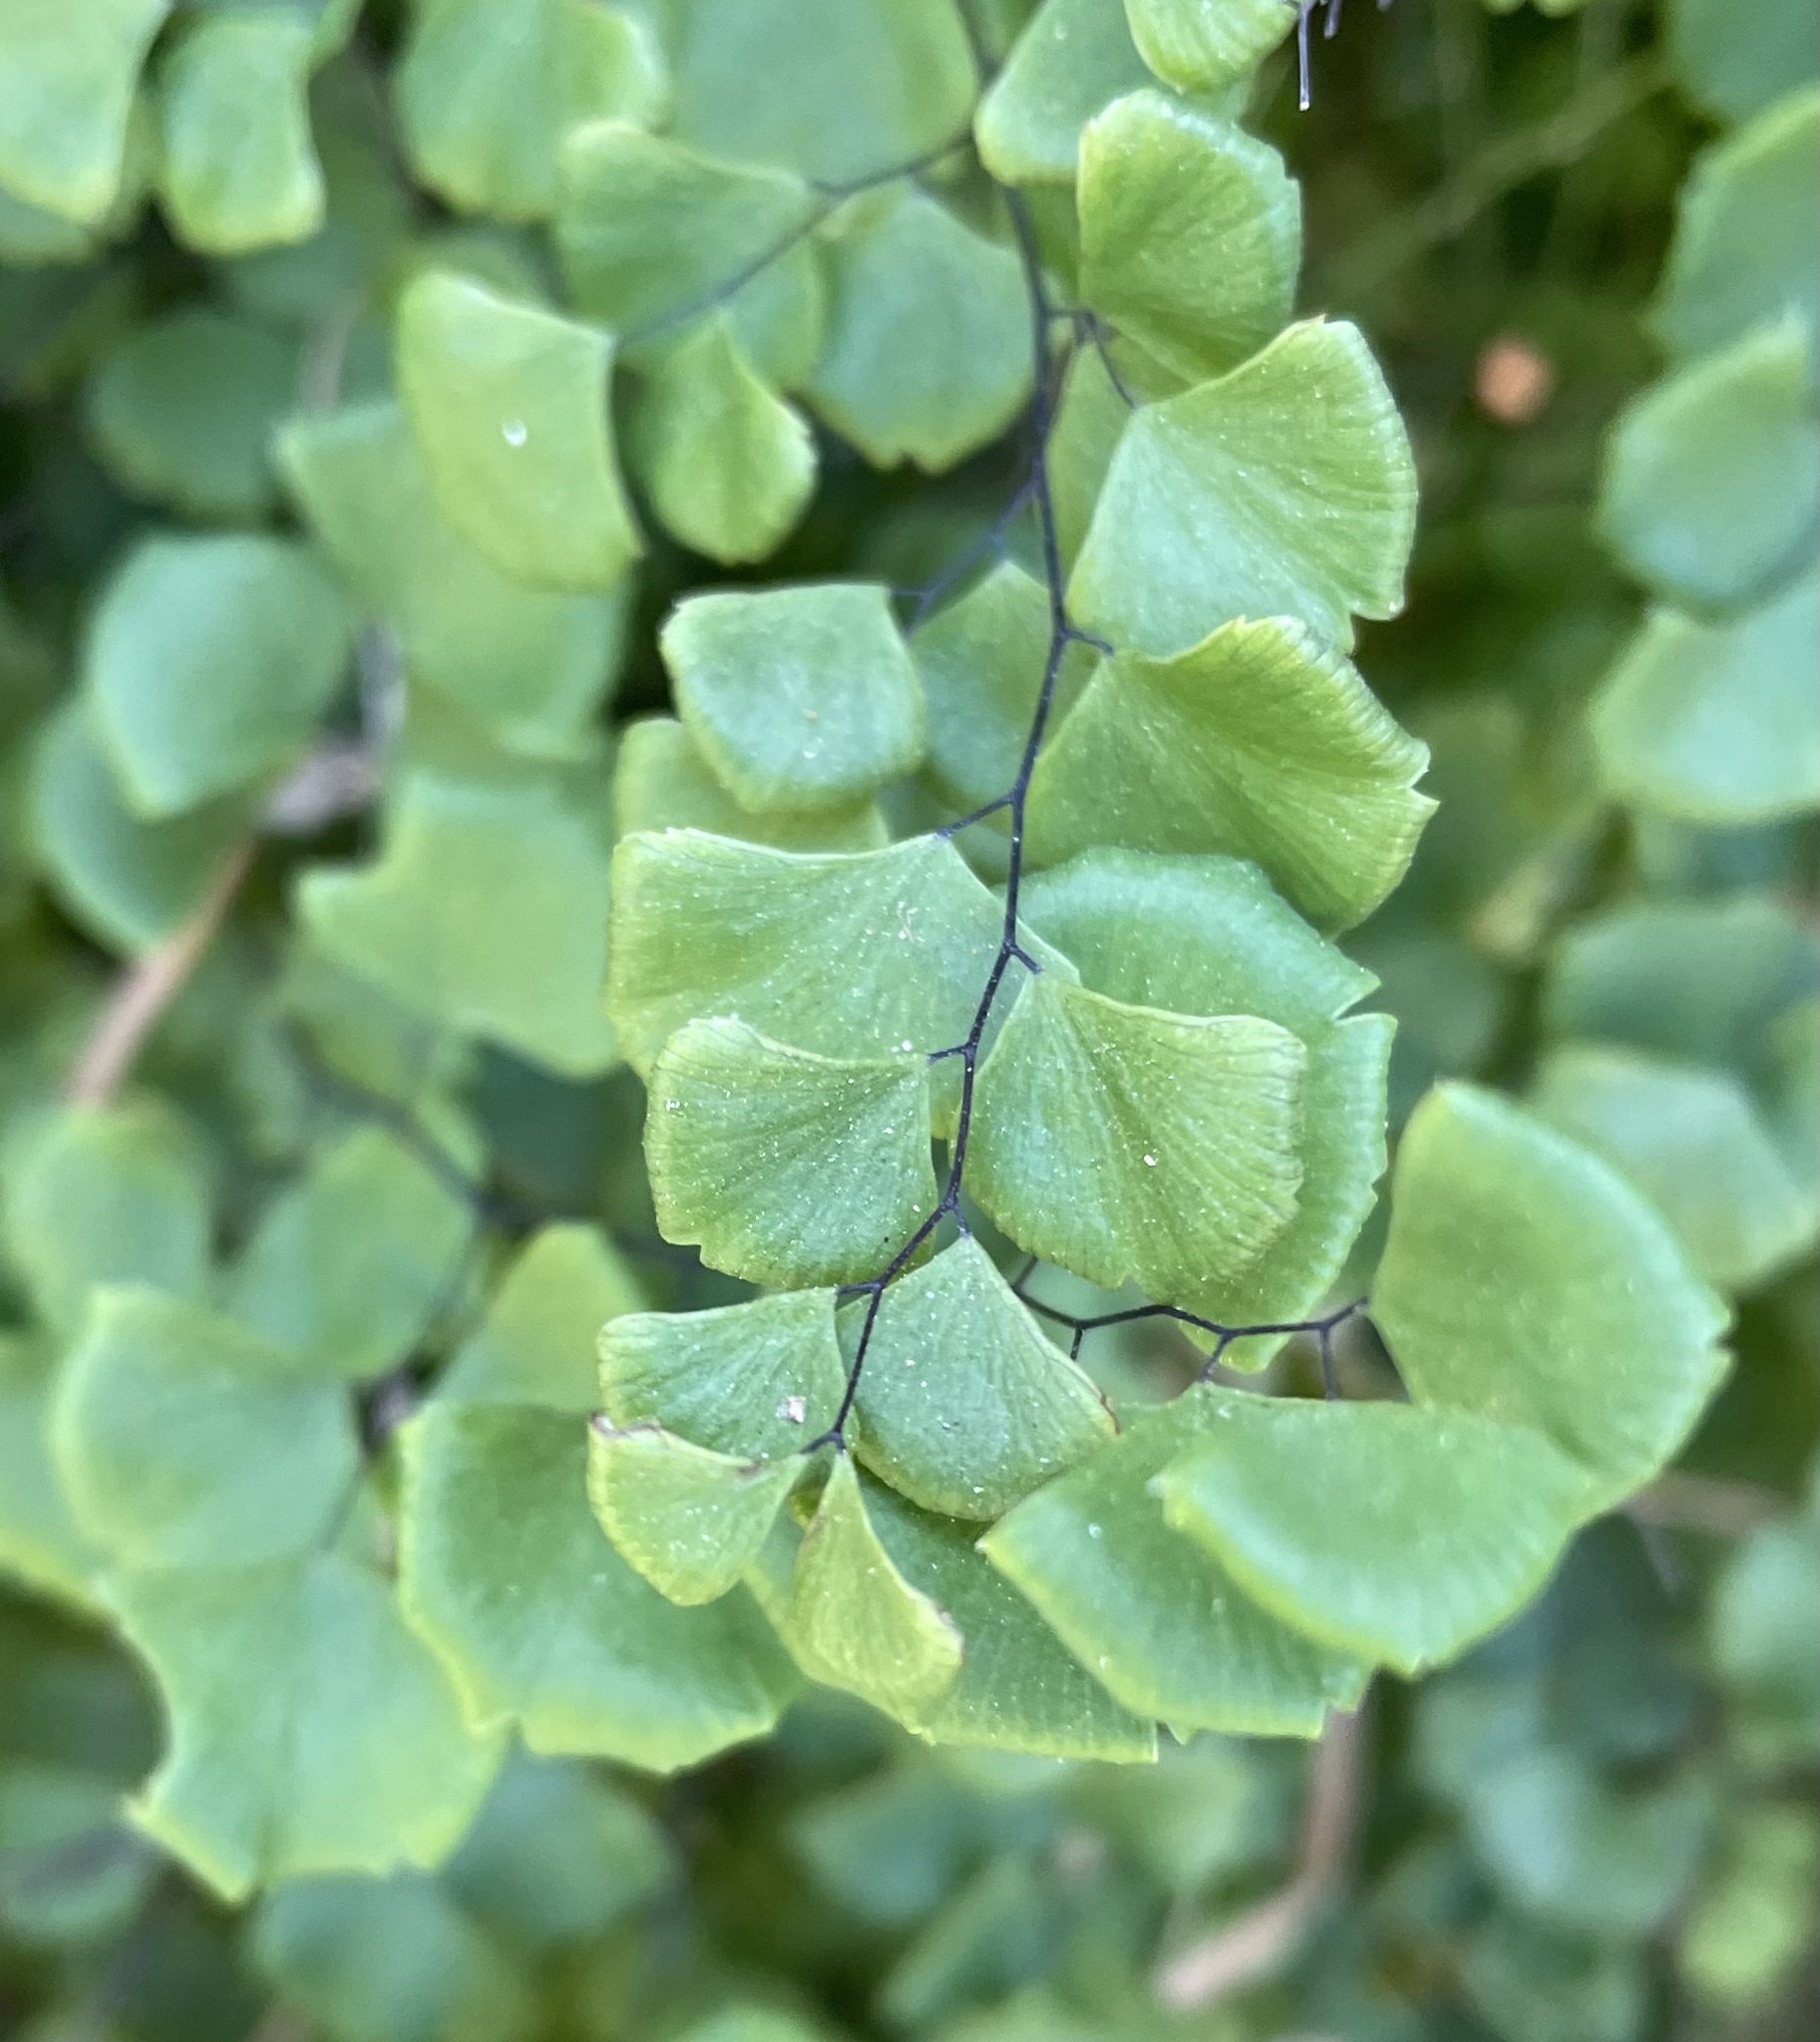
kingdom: Plantae
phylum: Tracheophyta
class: Polypodiopsida
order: Polypodiales
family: Pteridaceae
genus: Adiantum
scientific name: Adiantum jordanii
